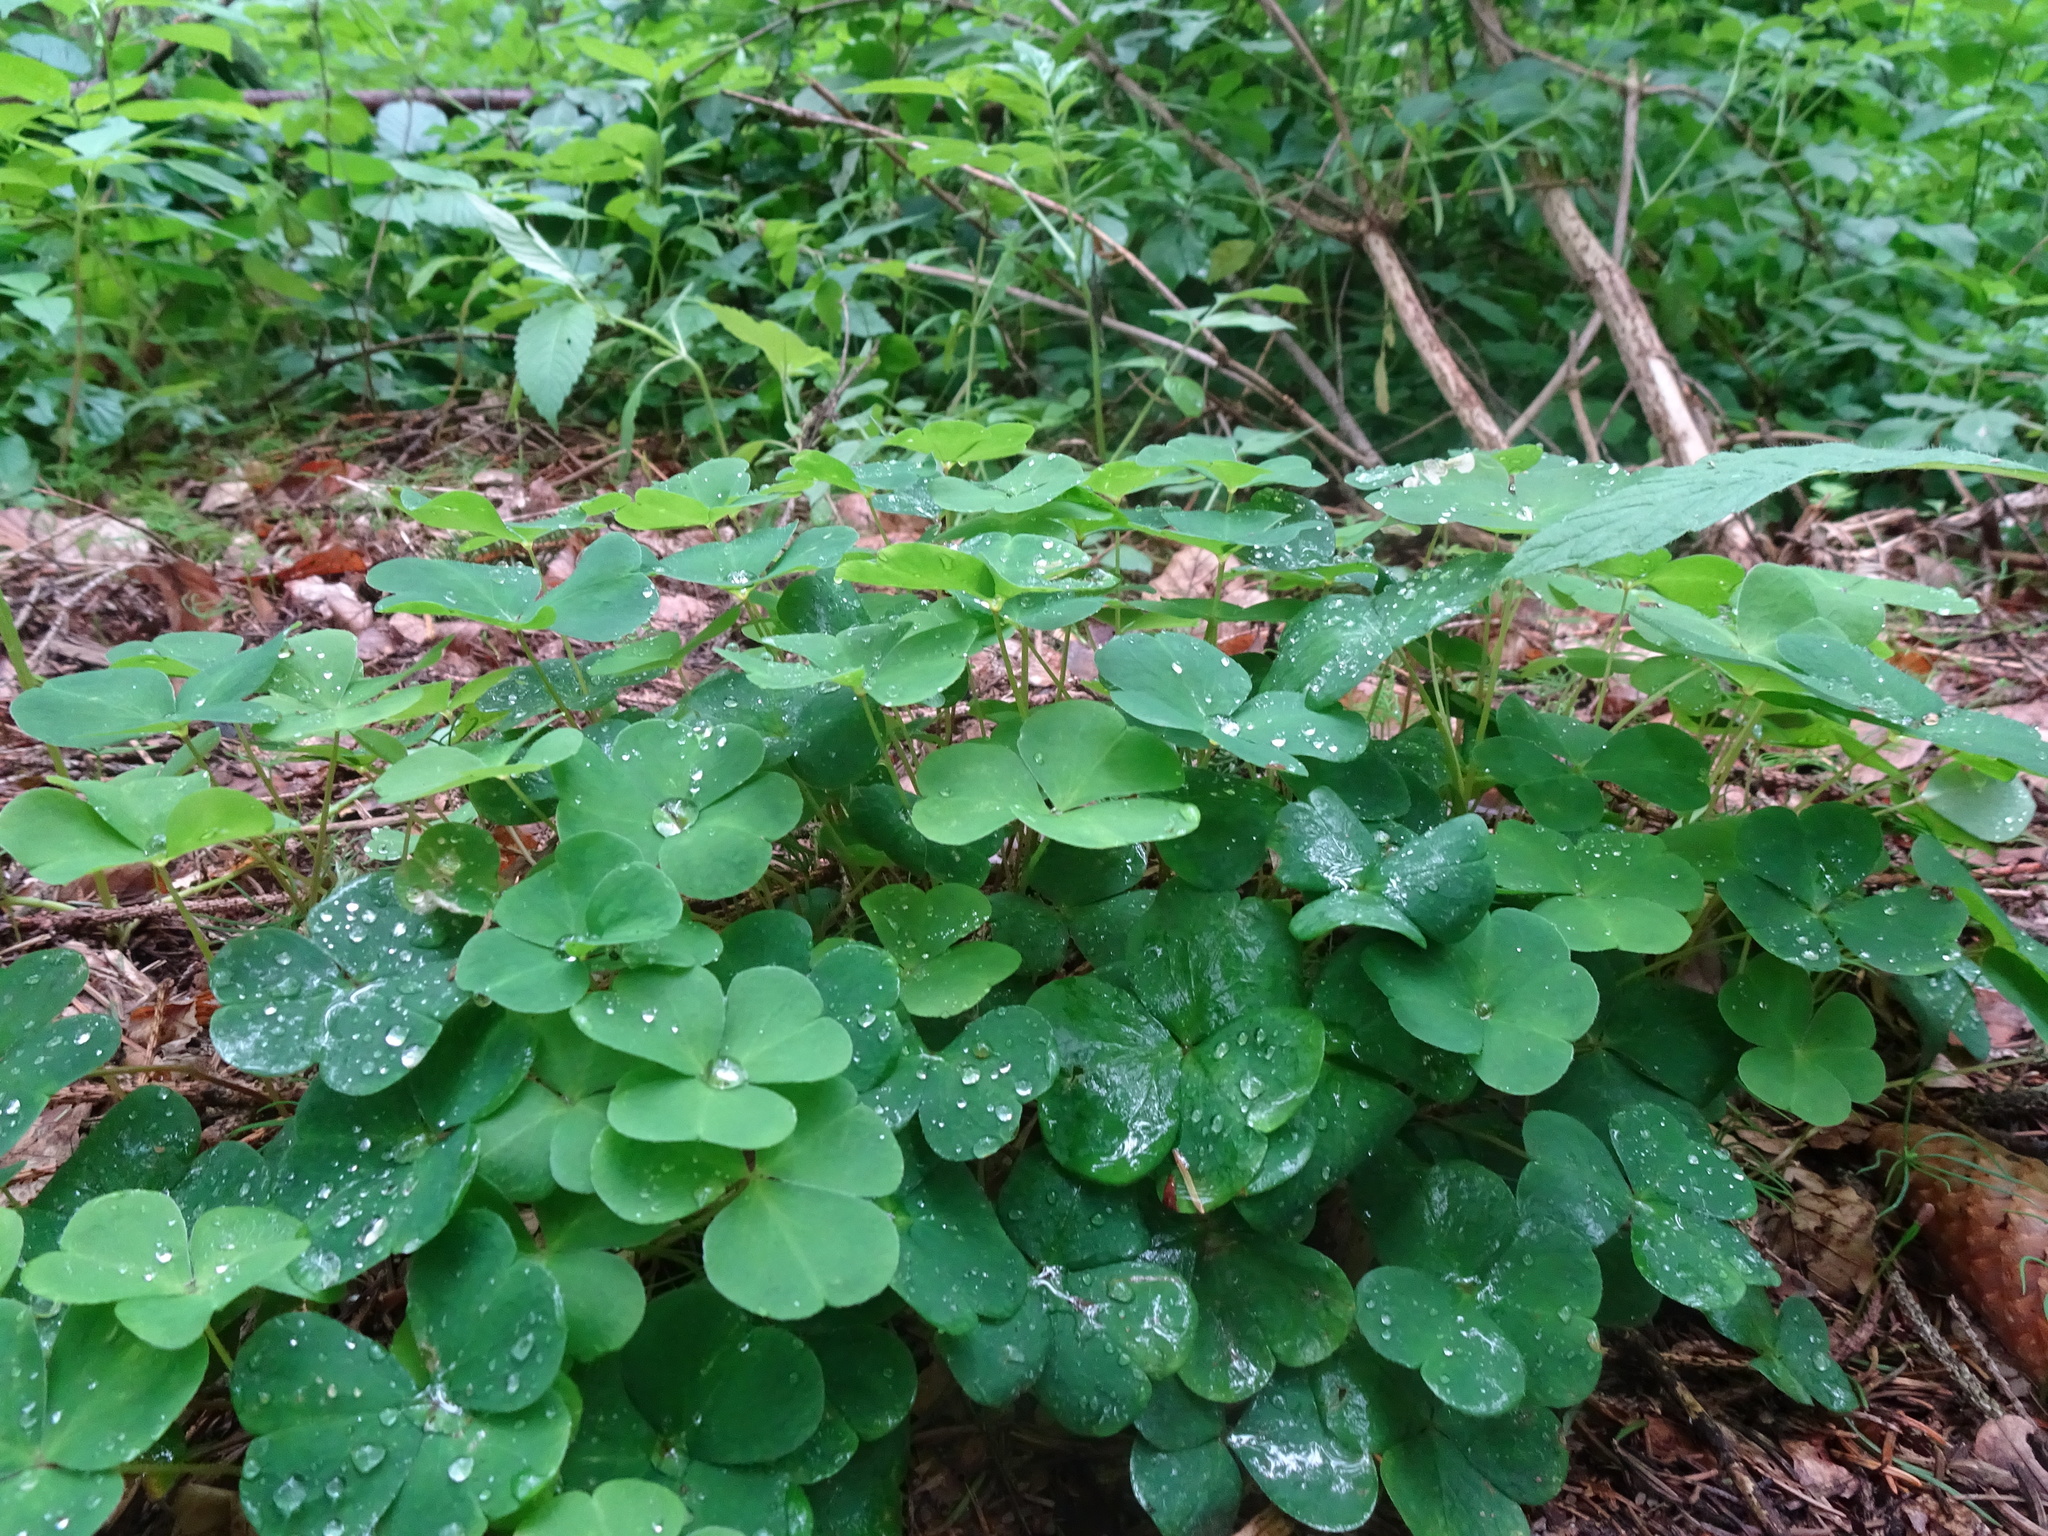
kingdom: Plantae
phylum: Tracheophyta
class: Magnoliopsida
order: Oxalidales
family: Oxalidaceae
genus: Oxalis
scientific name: Oxalis acetosella
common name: Wood-sorrel
